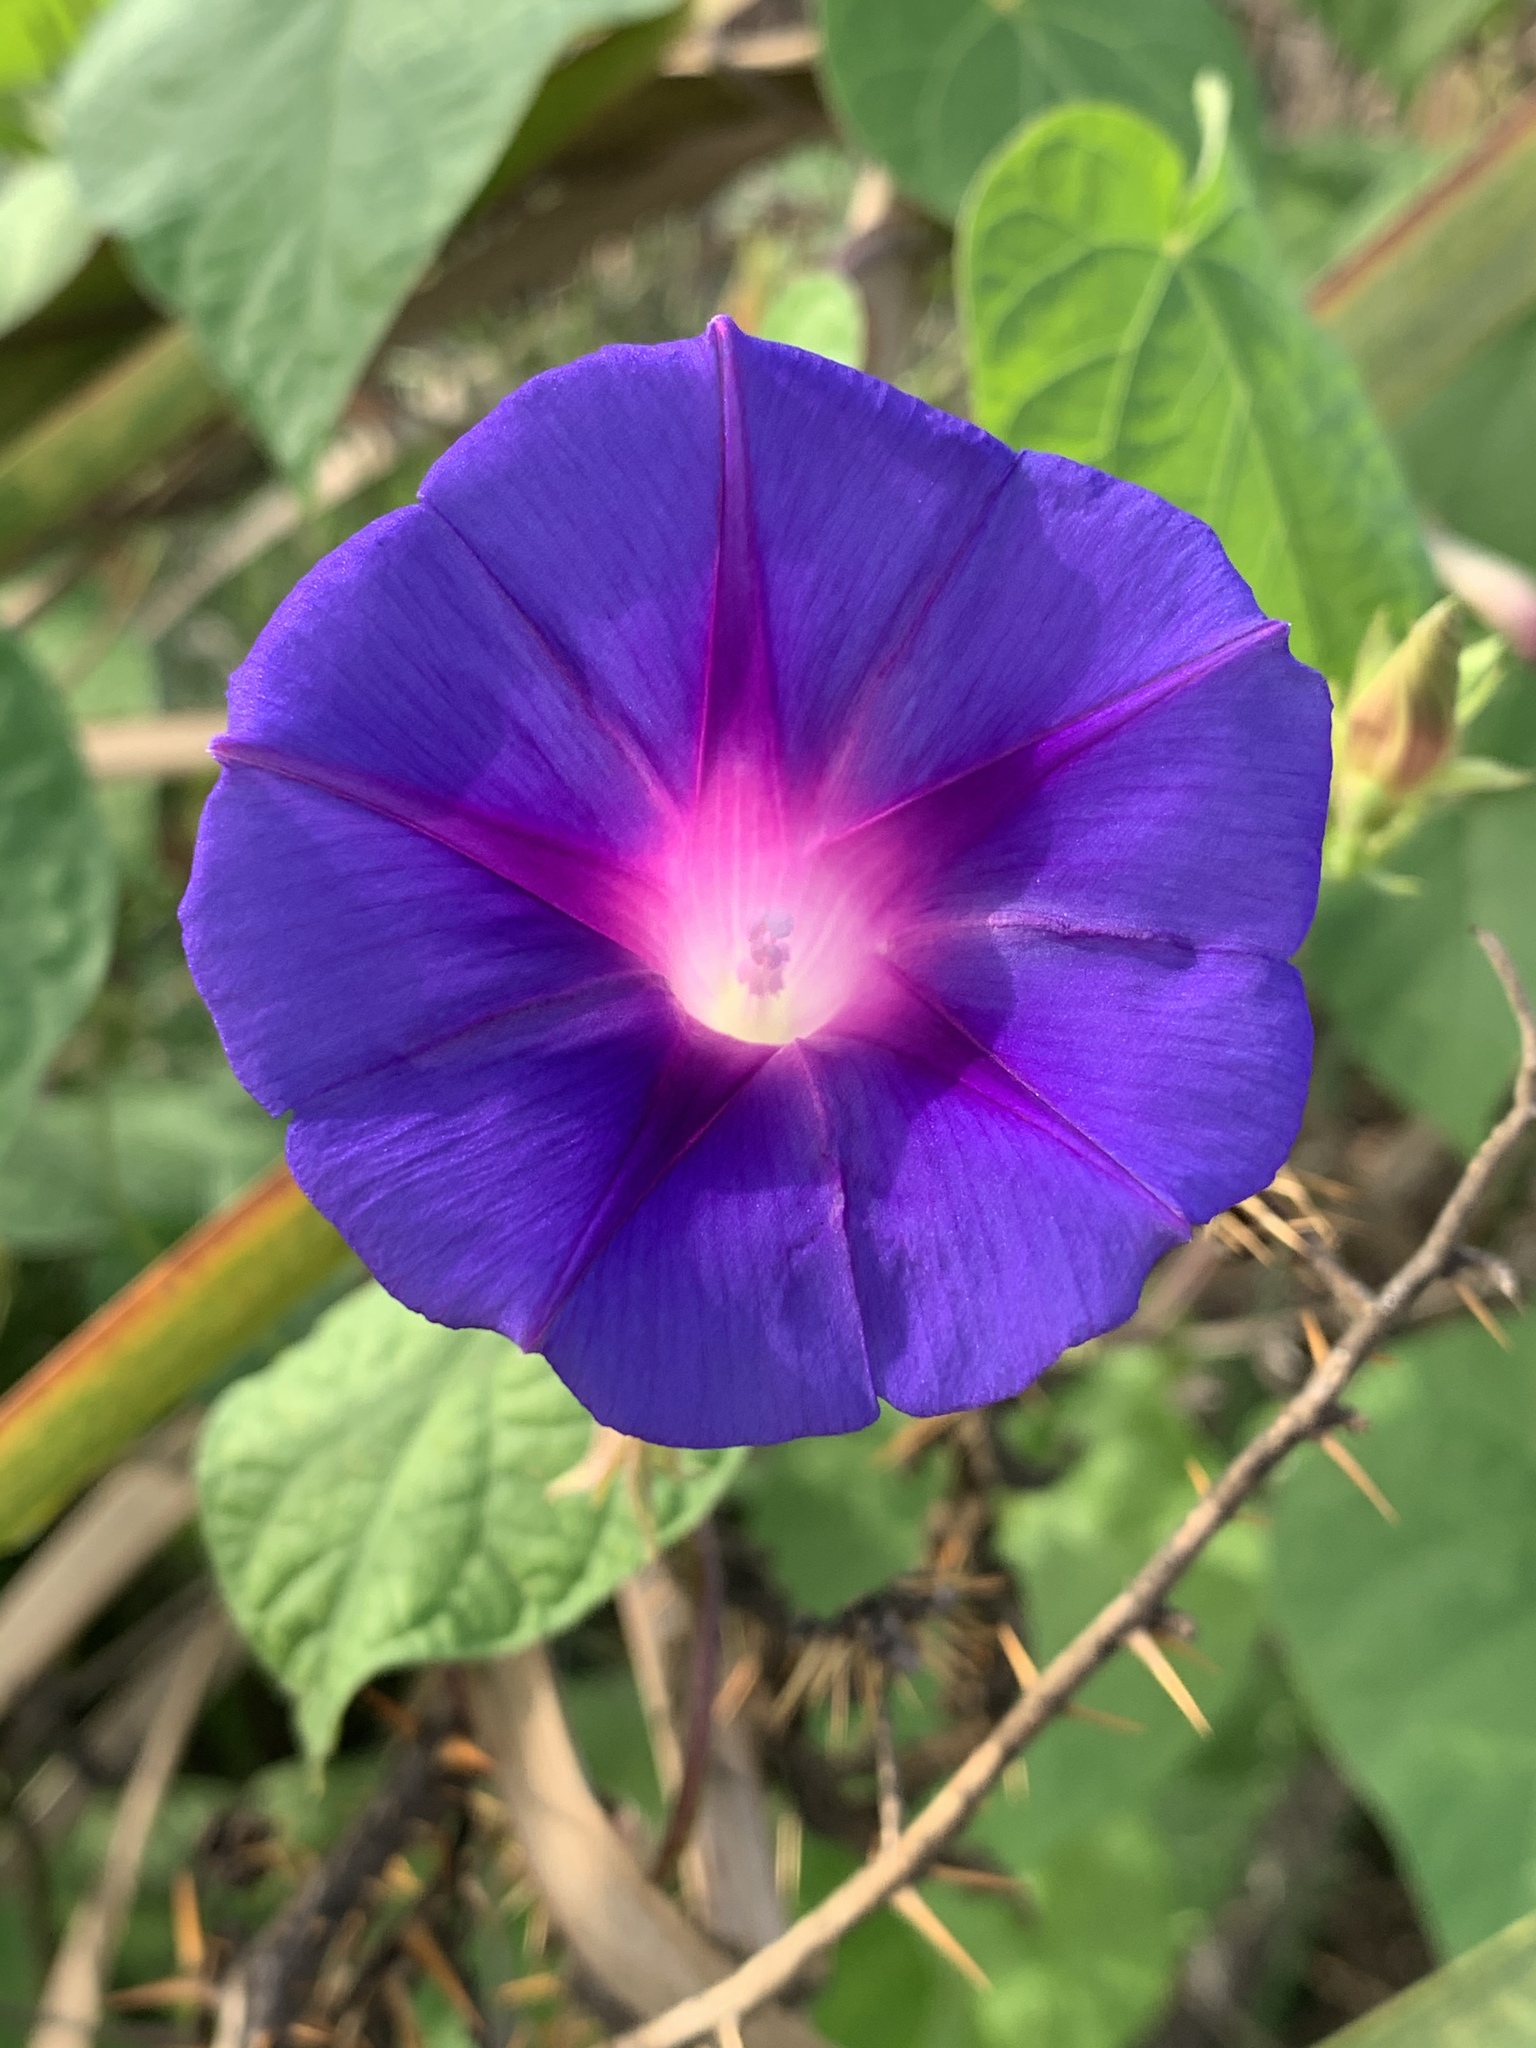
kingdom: Plantae
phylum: Tracheophyta
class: Magnoliopsida
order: Solanales
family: Convolvulaceae
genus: Ipomoea
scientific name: Ipomoea purpurea
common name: Common morning-glory
